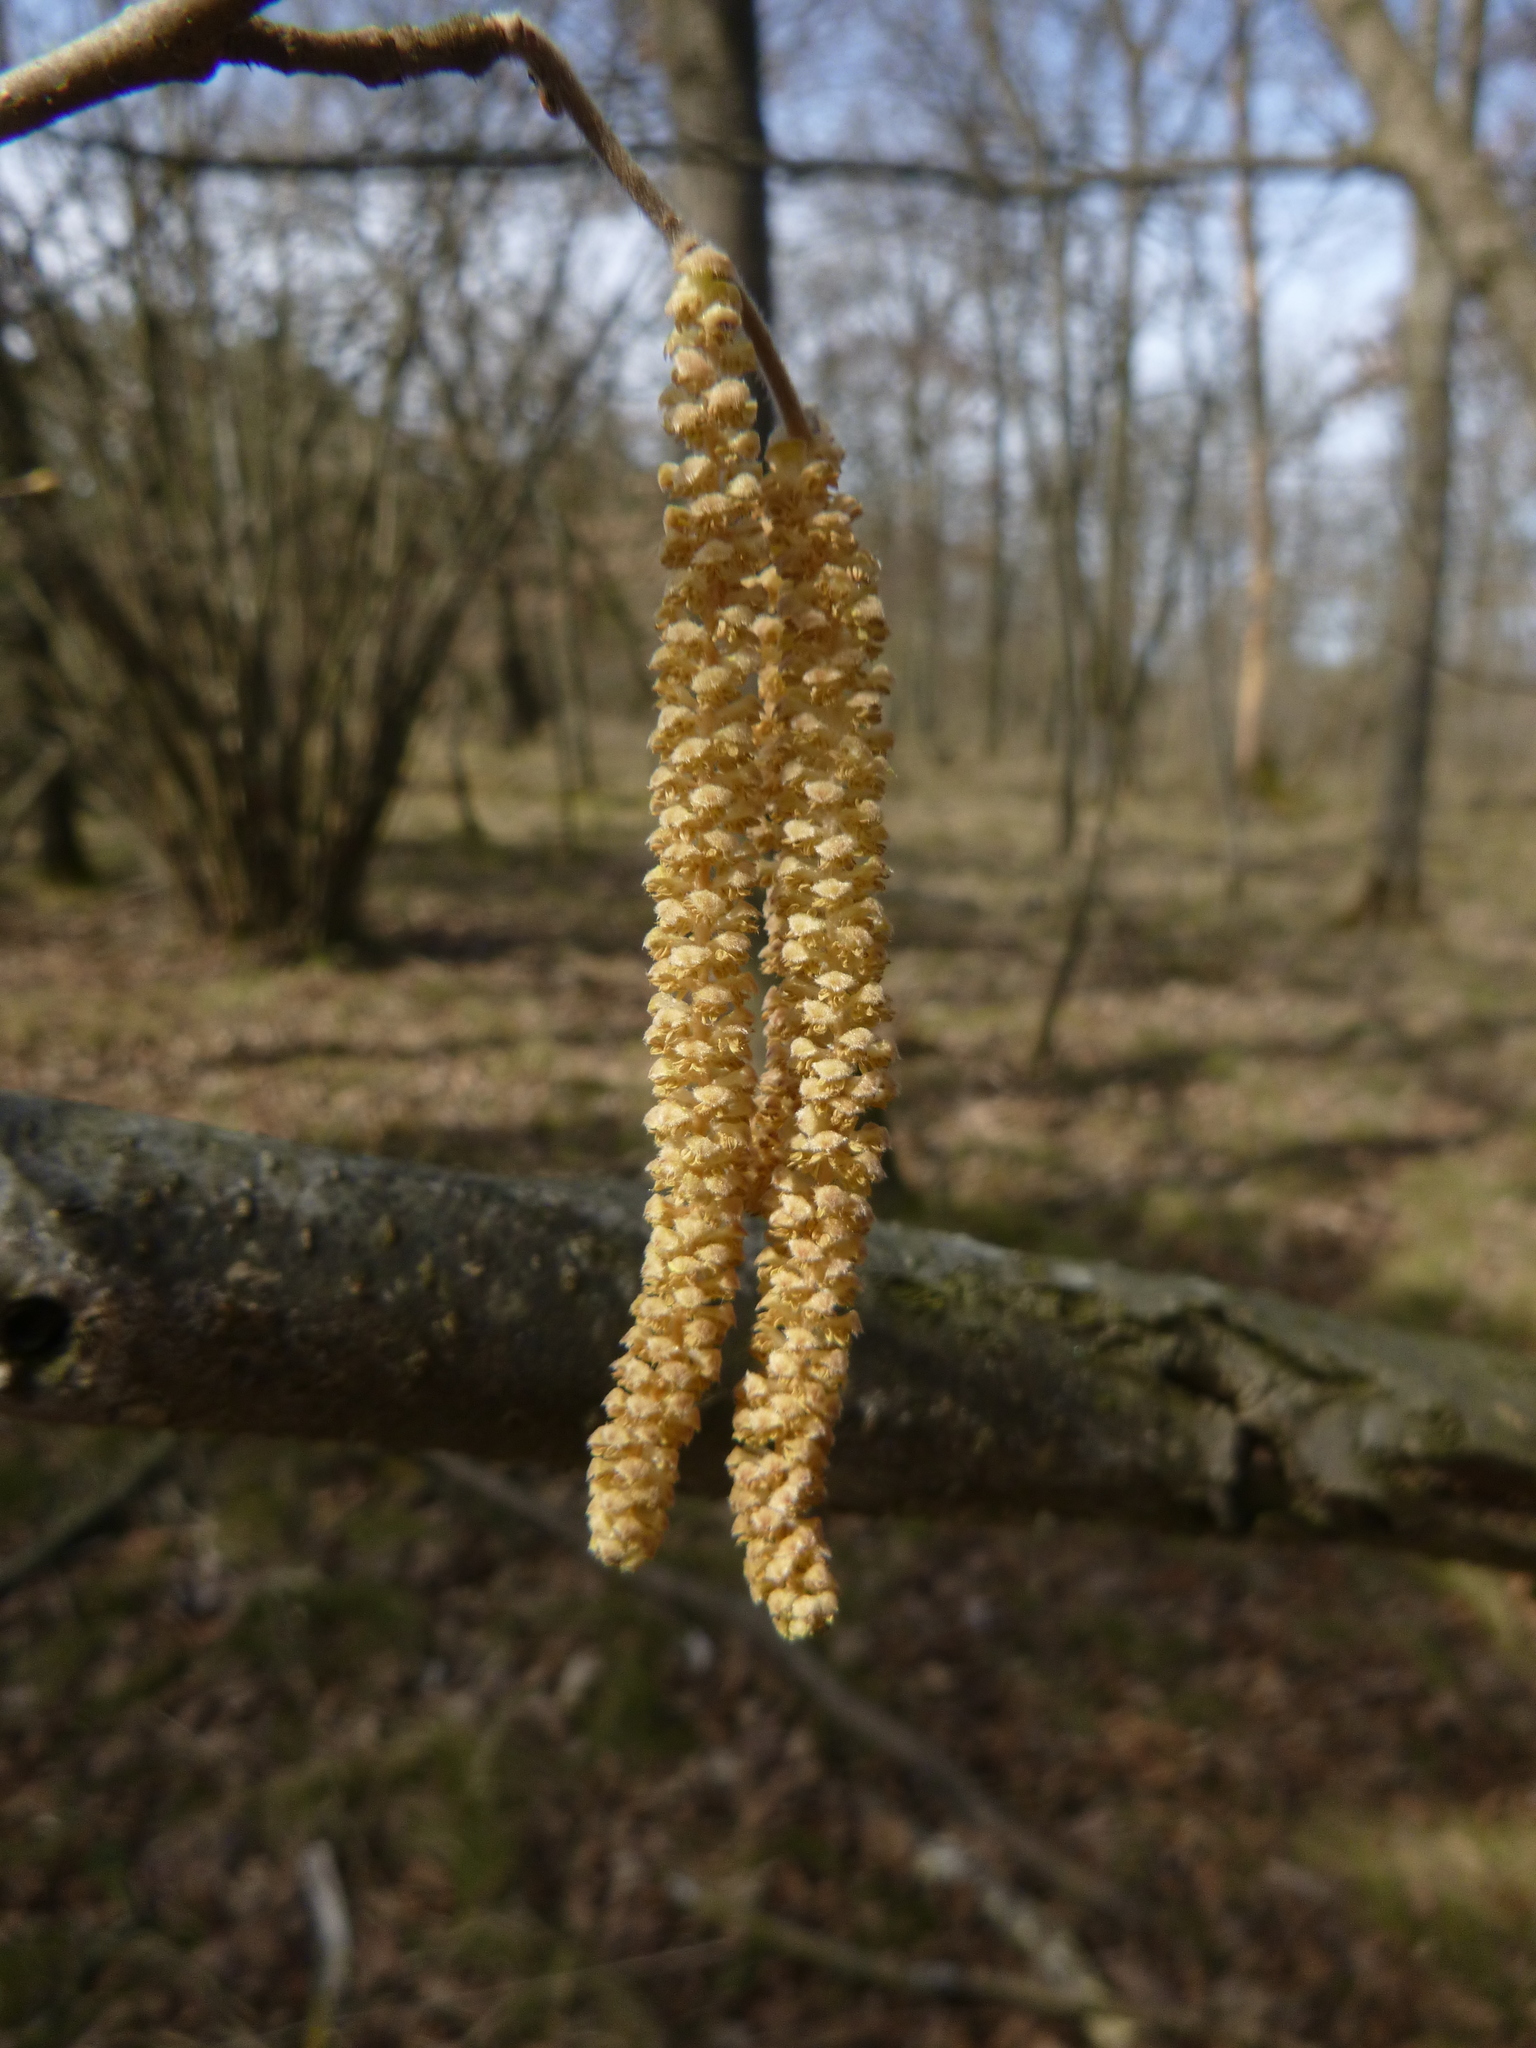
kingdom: Plantae
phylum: Tracheophyta
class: Magnoliopsida
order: Fagales
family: Betulaceae
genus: Corylus
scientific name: Corylus avellana
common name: European hazel
